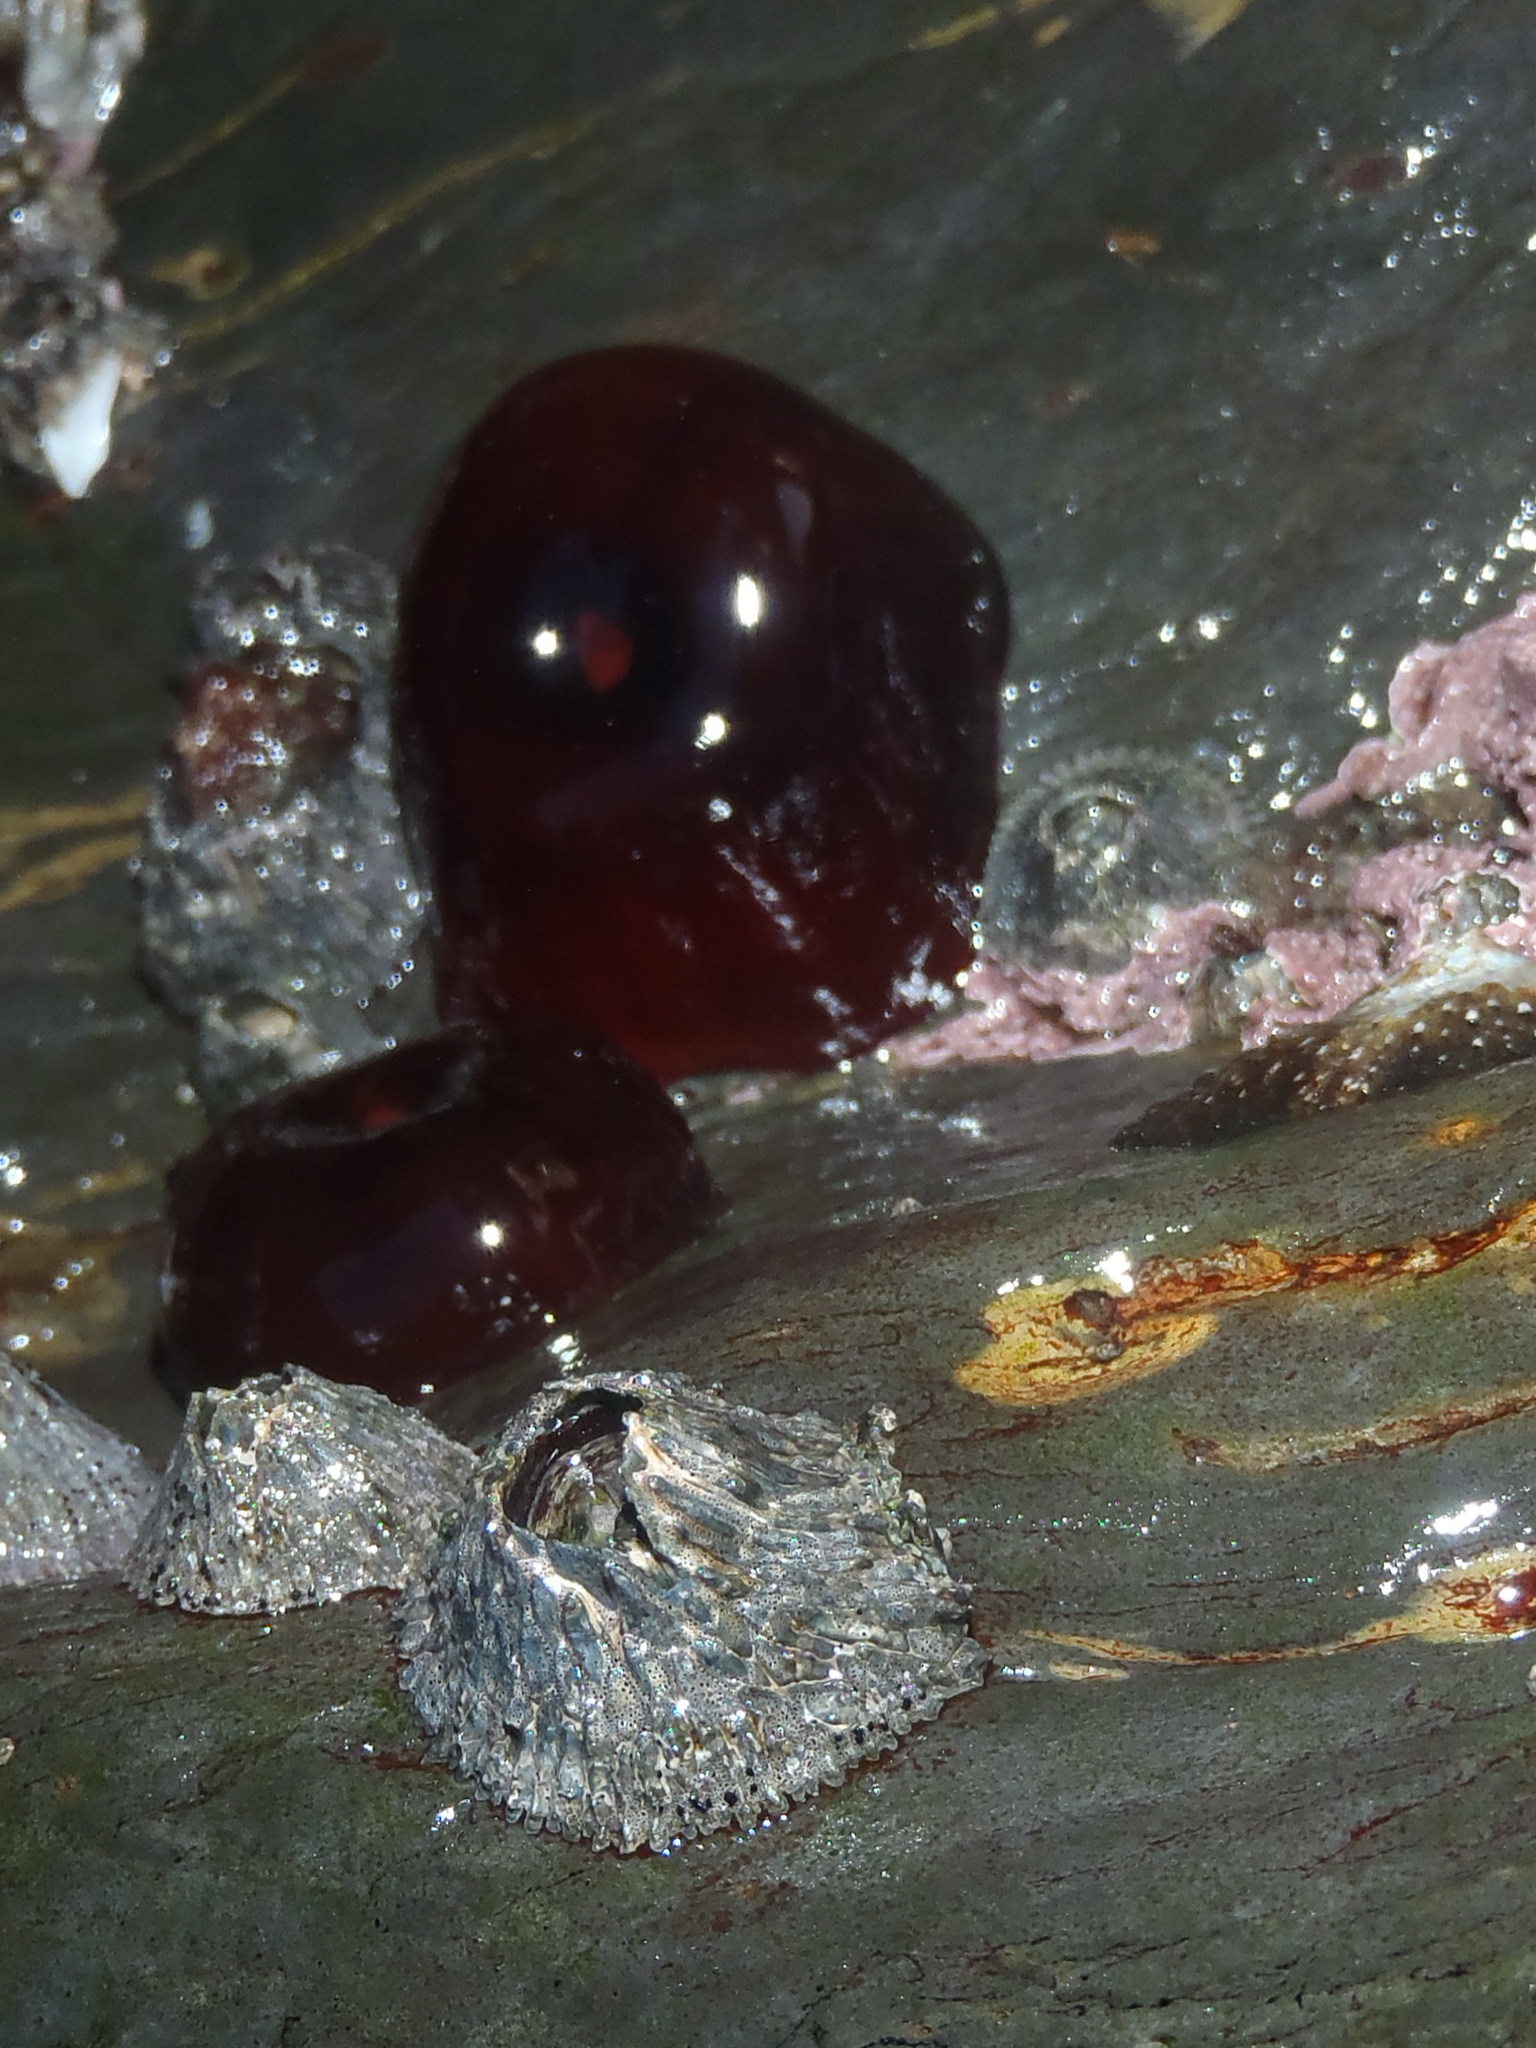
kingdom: Animalia
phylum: Cnidaria
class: Anthozoa
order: Actiniaria
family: Actiniidae
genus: Actinia
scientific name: Actinia ebhayiensis
